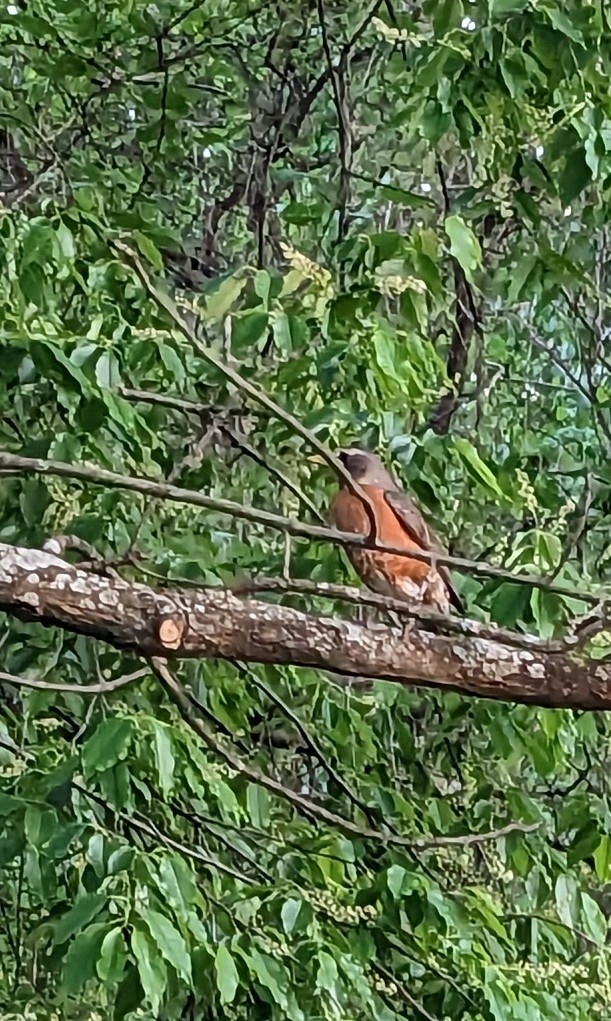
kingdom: Animalia
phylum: Chordata
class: Aves
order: Passeriformes
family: Turdidae
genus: Turdus
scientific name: Turdus migratorius
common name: American robin
